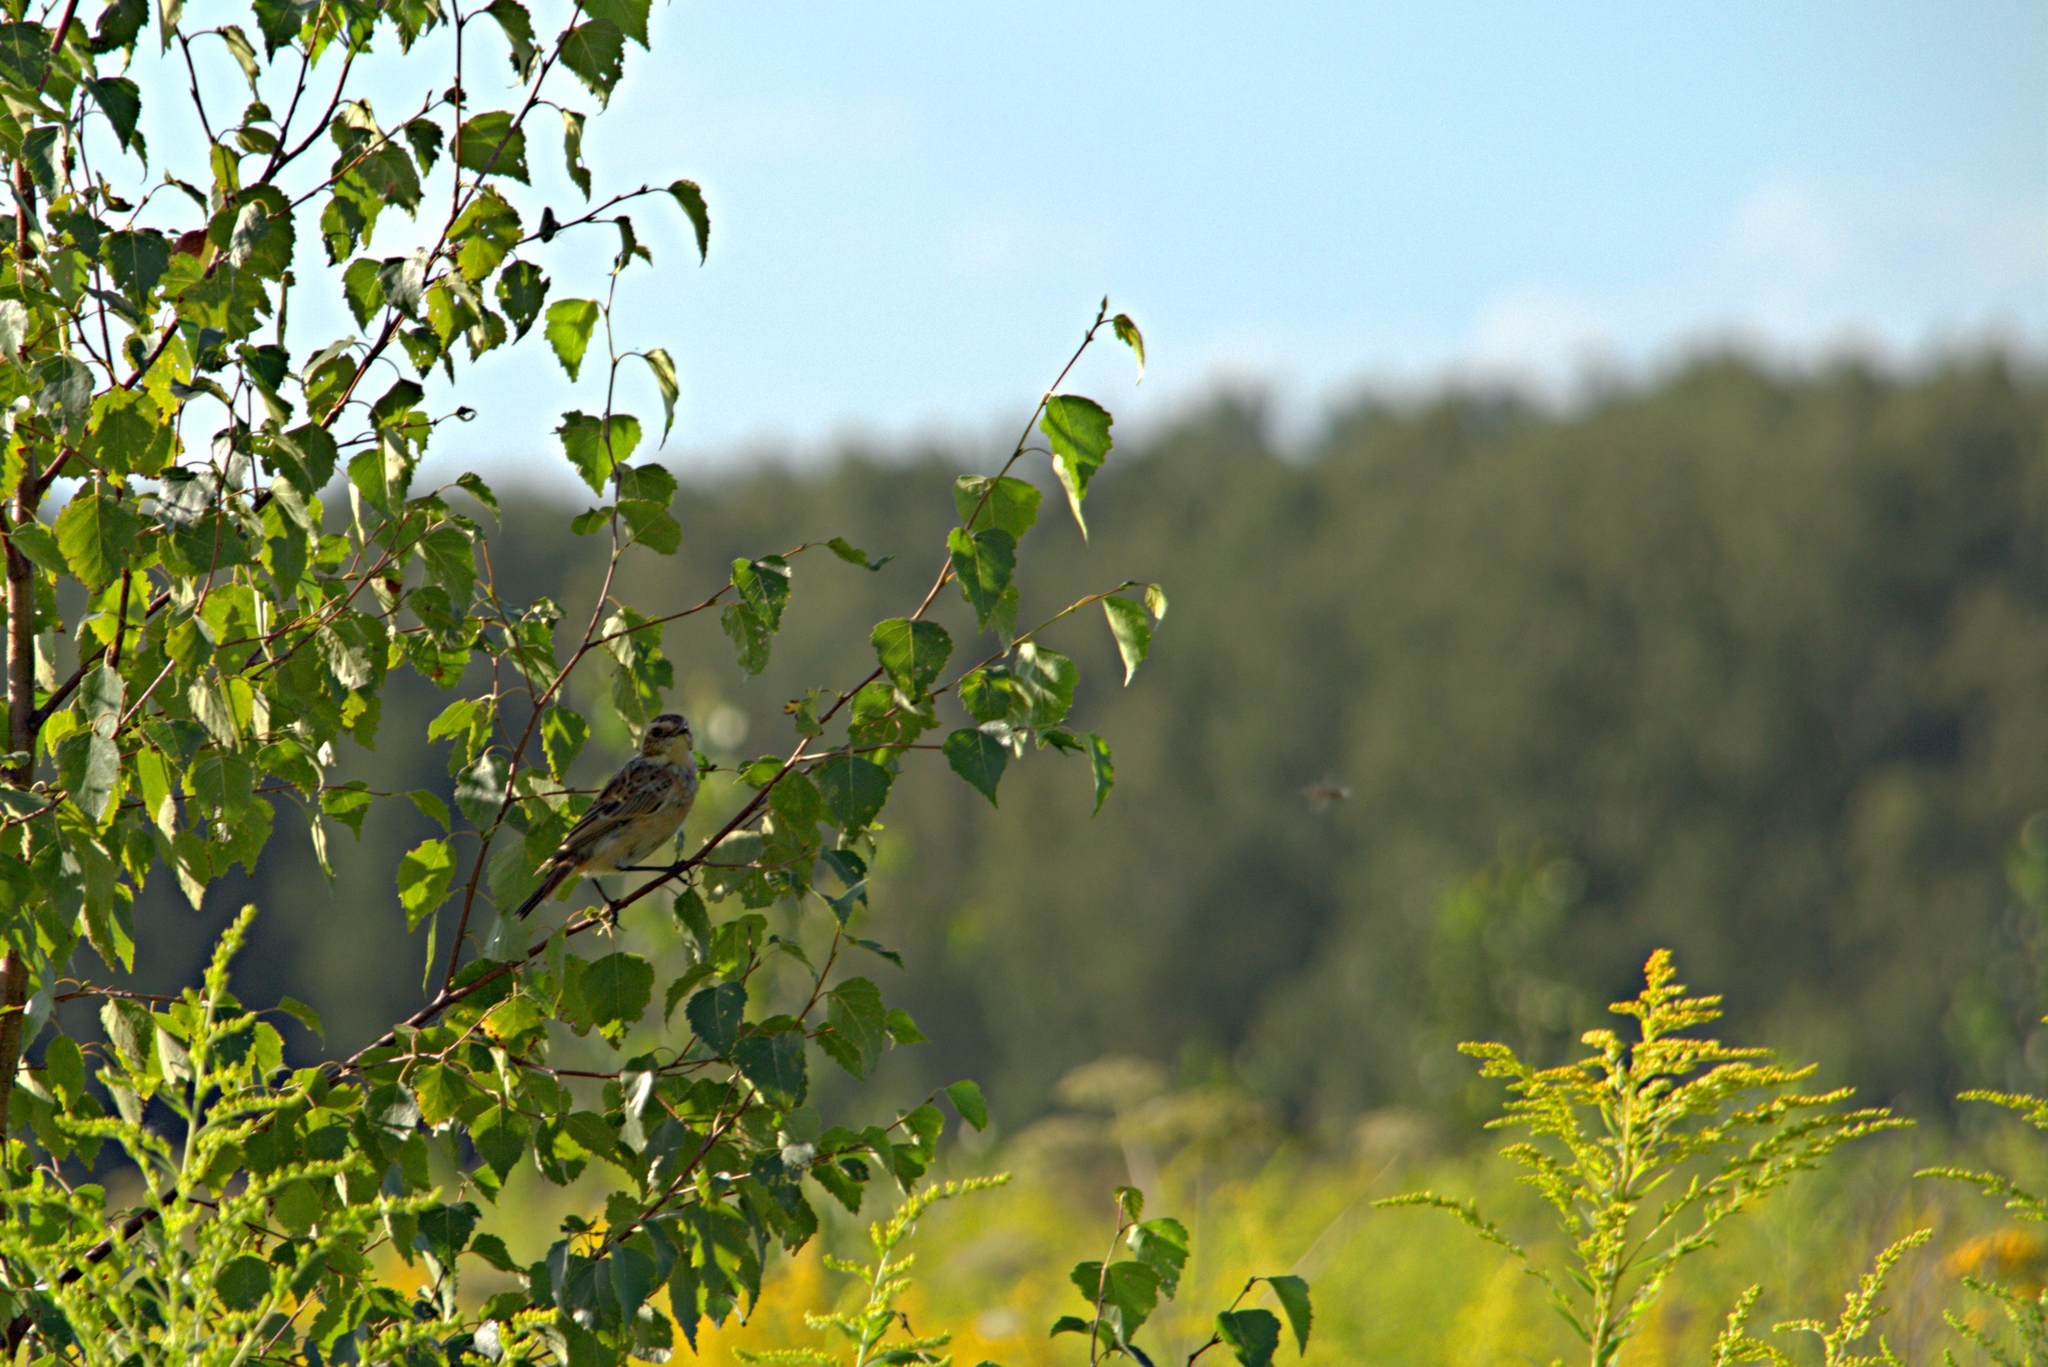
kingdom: Animalia
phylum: Chordata
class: Aves
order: Passeriformes
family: Muscicapidae
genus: Saxicola
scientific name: Saxicola rubetra
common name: Whinchat
